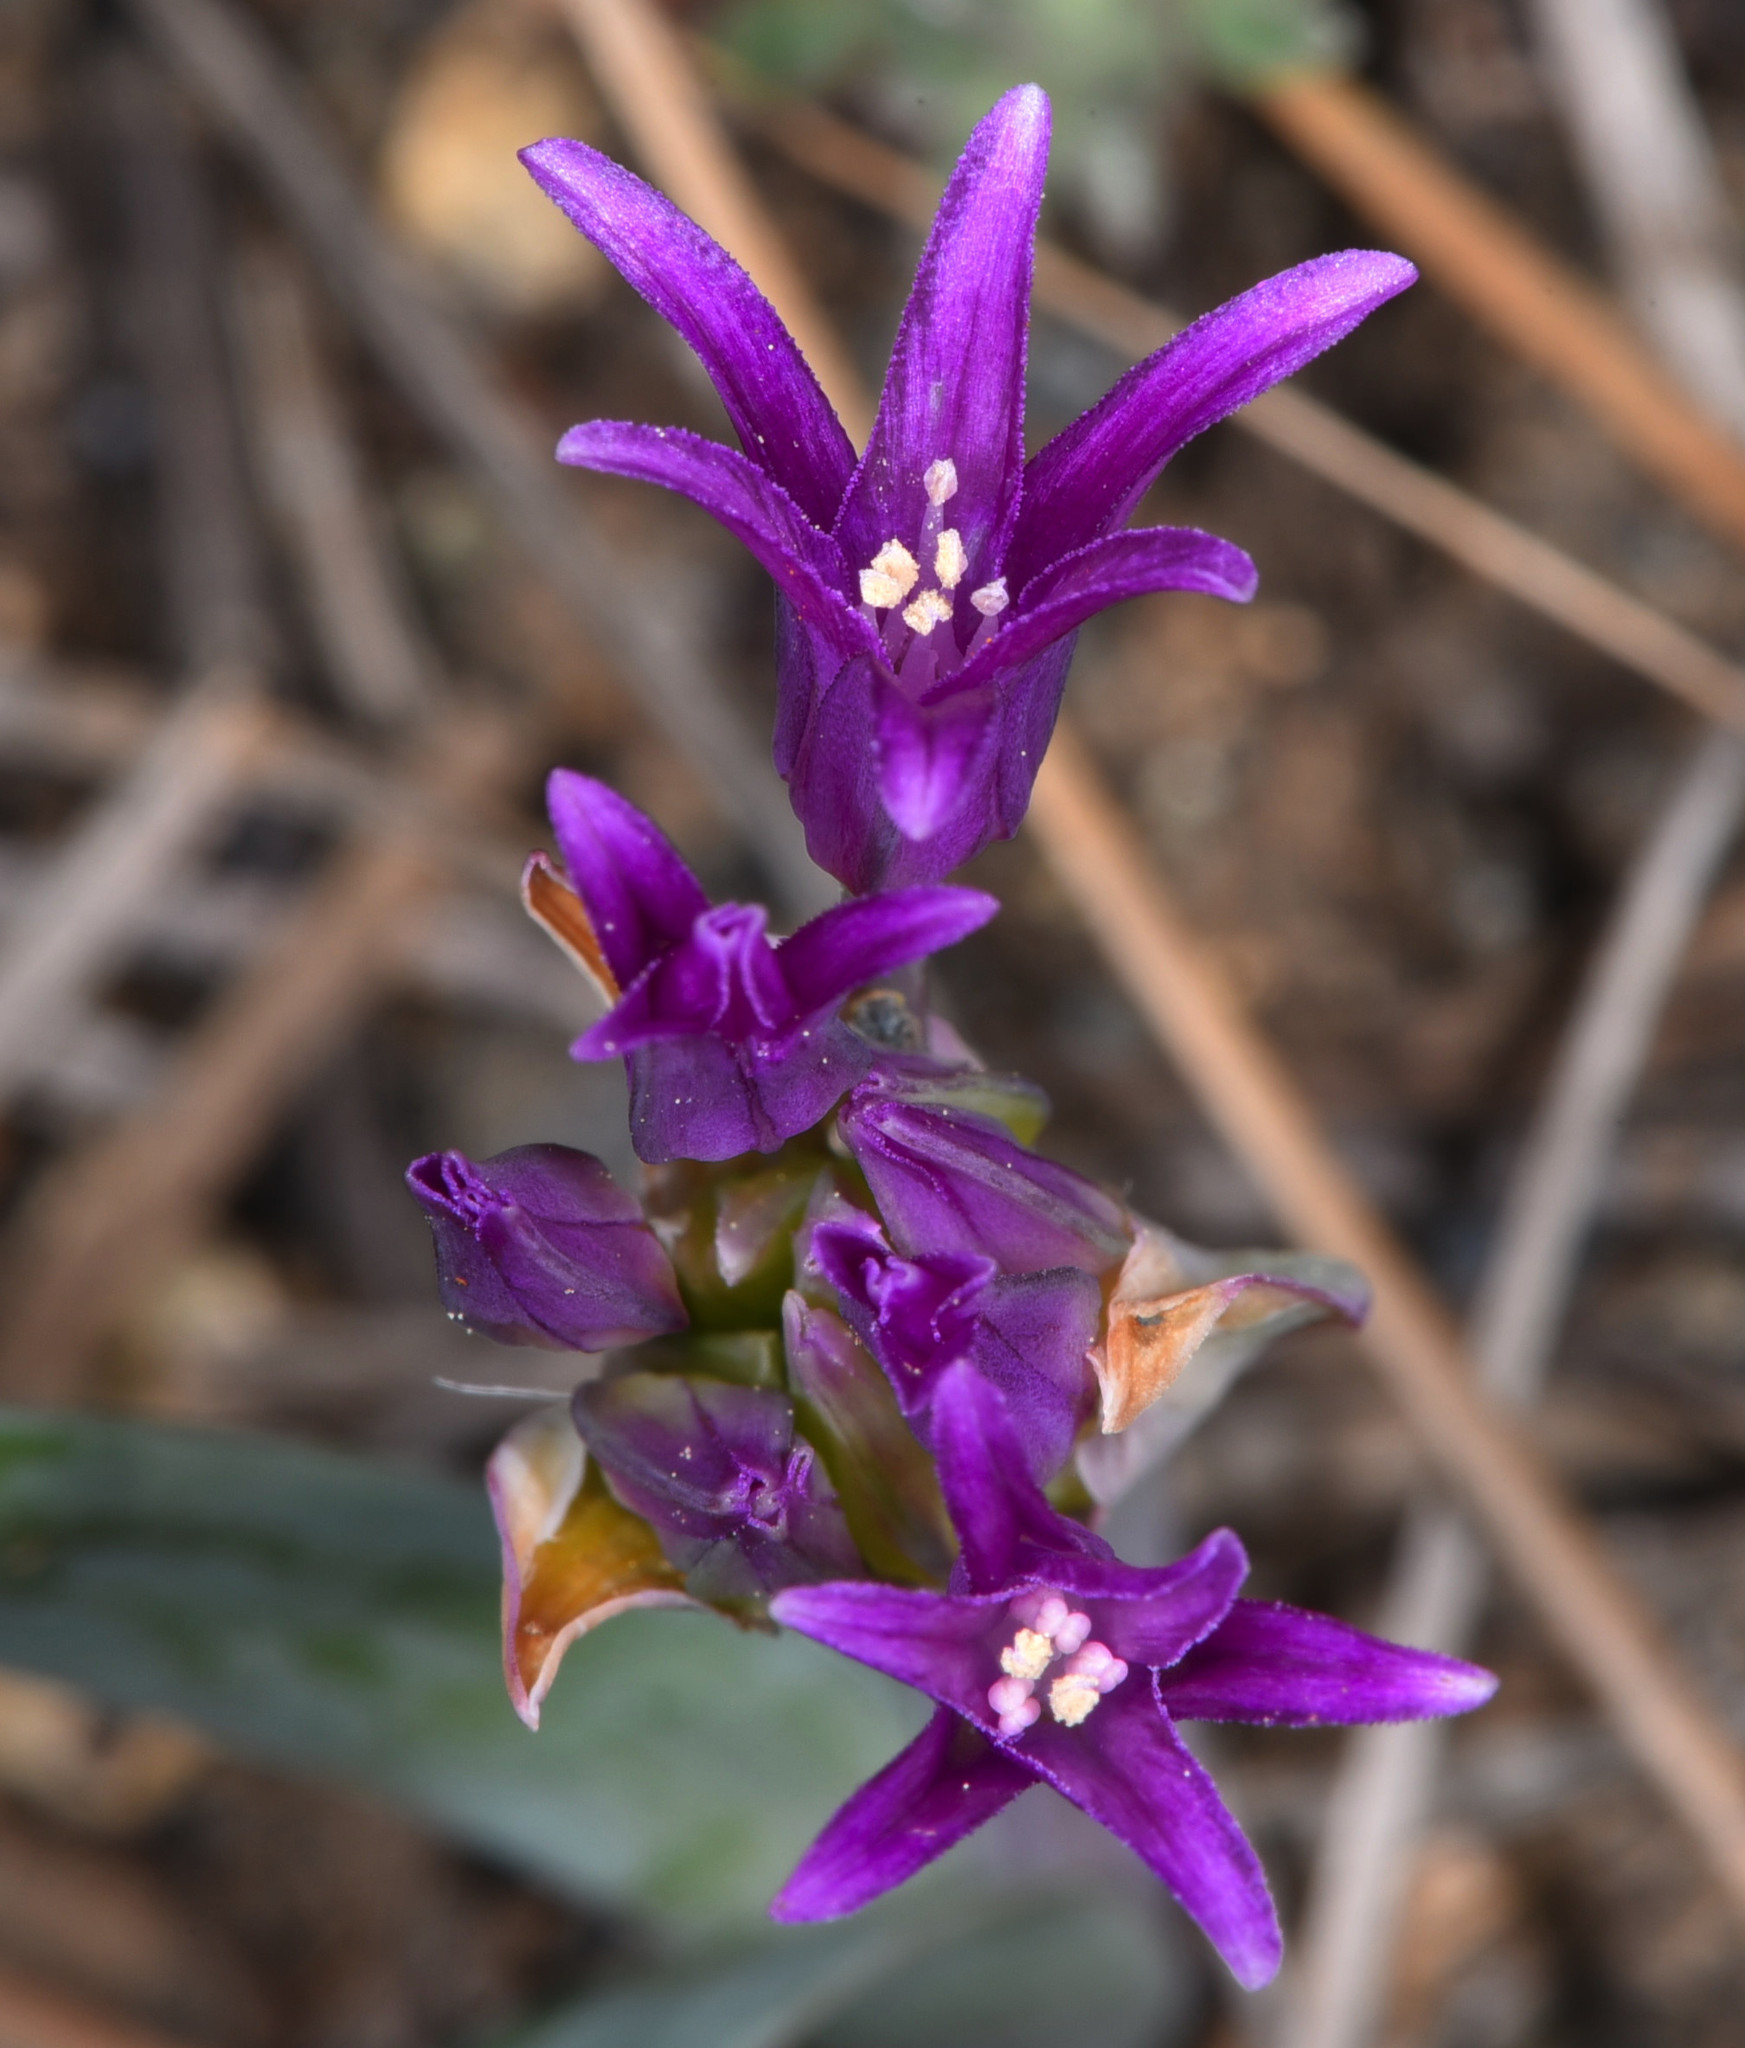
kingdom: Plantae
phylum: Tracheophyta
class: Liliopsida
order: Asparagales
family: Amaryllidaceae
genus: Allium
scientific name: Allium falcifolium
